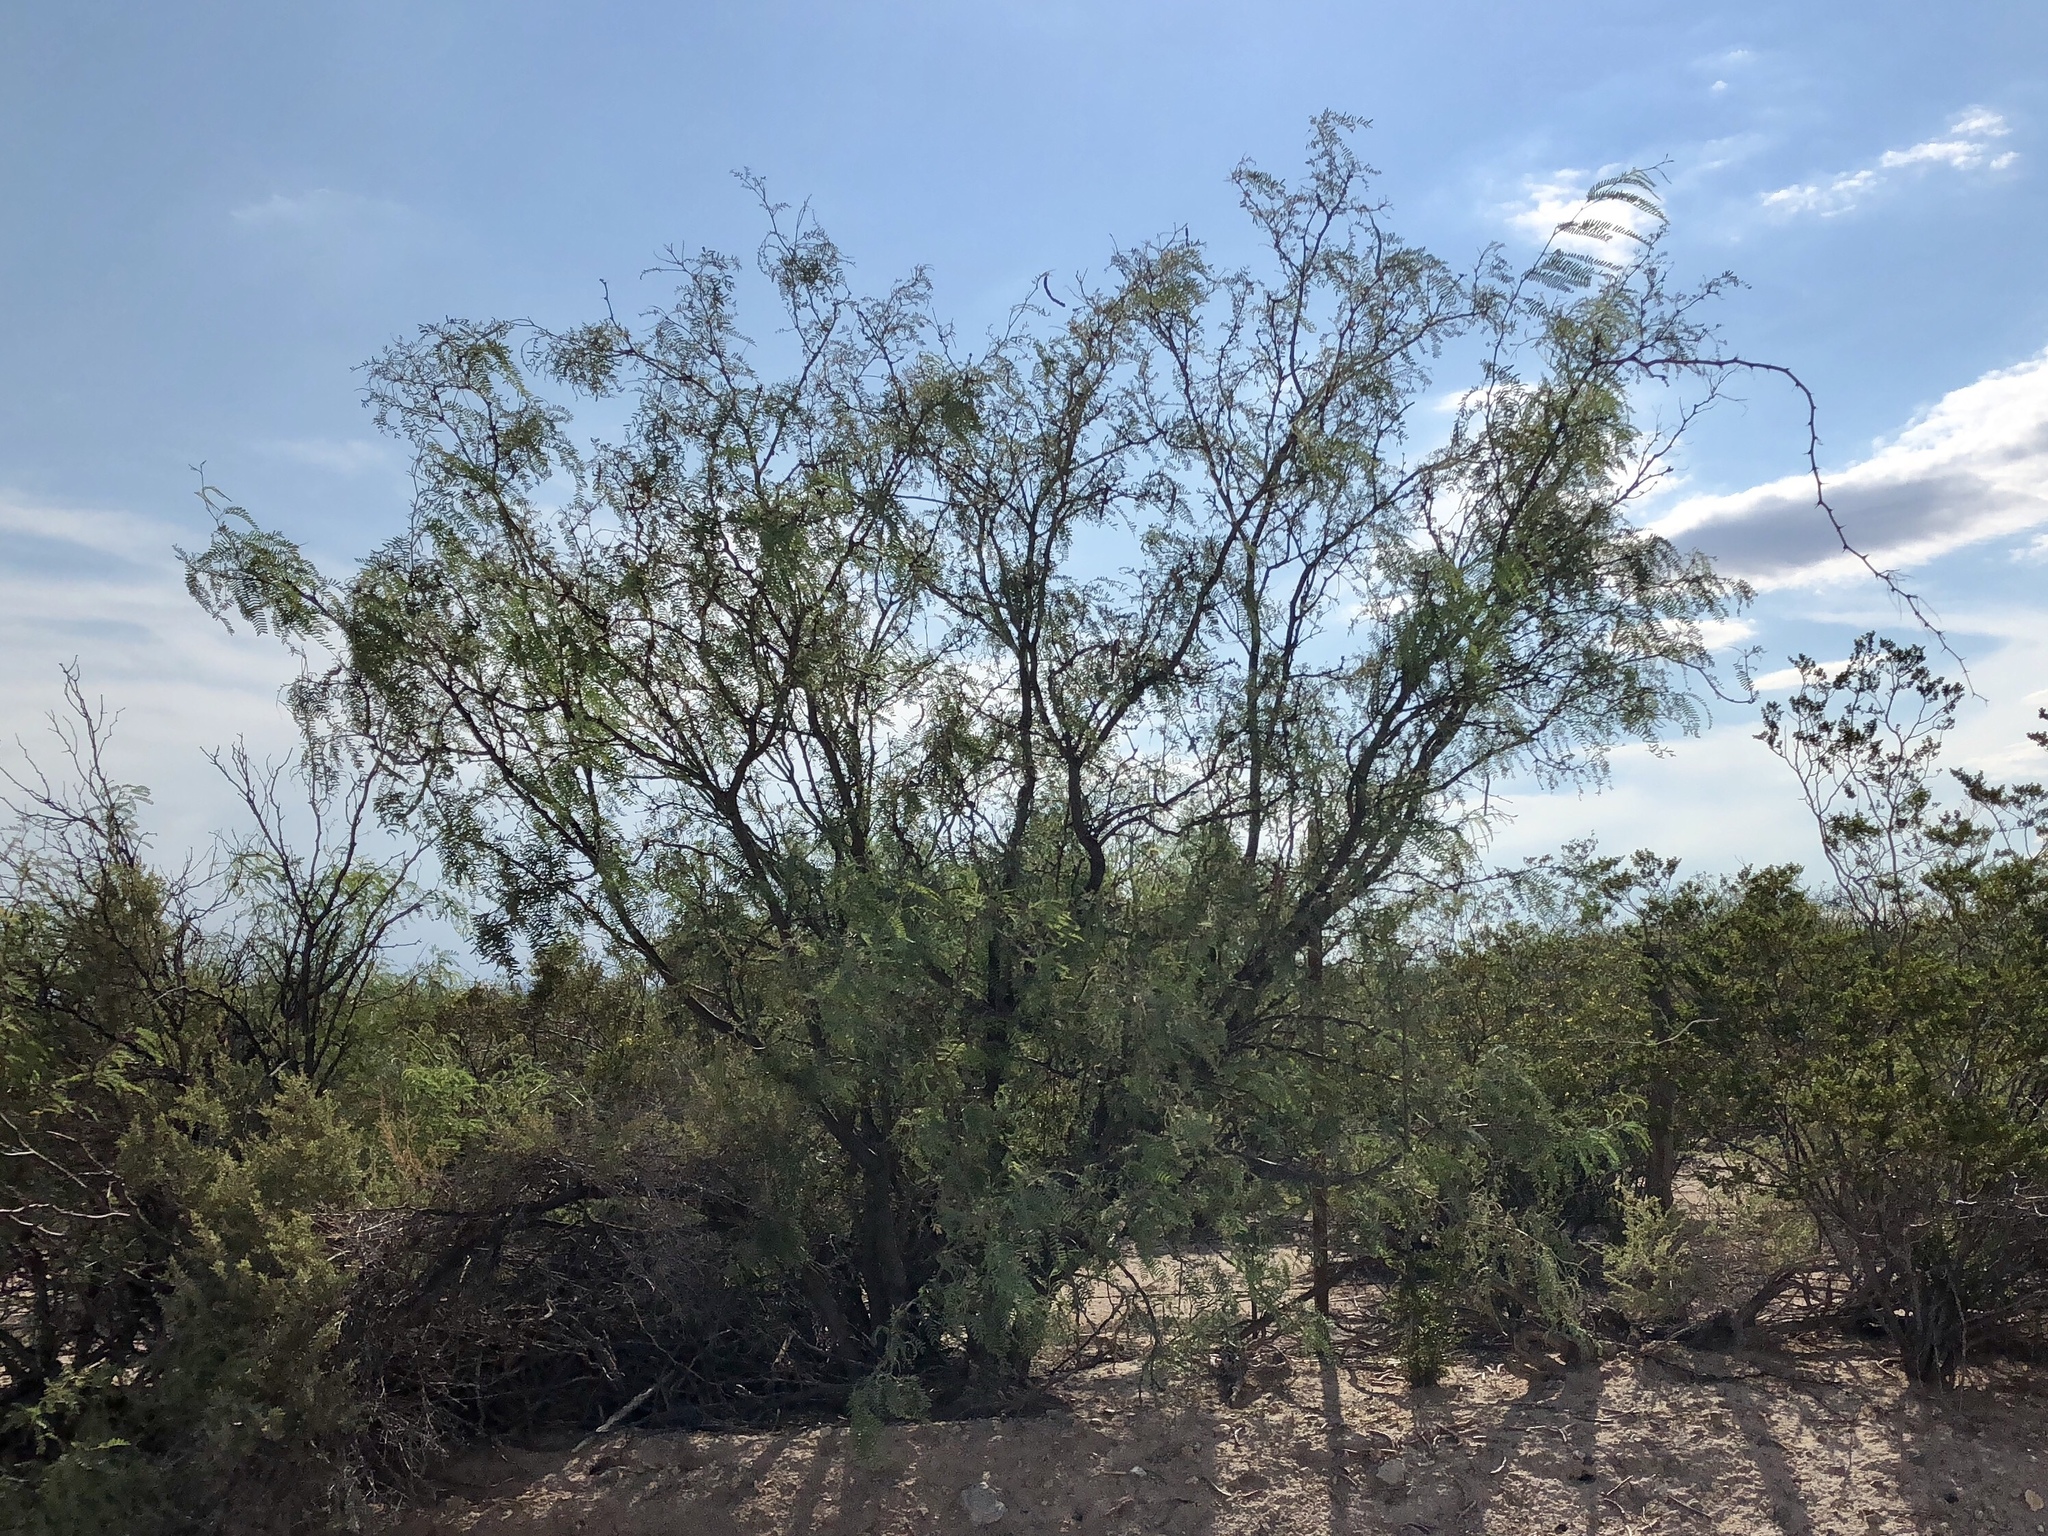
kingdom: Plantae
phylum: Tracheophyta
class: Magnoliopsida
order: Fabales
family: Fabaceae
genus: Prosopis
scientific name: Prosopis glandulosa
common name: Honey mesquite
